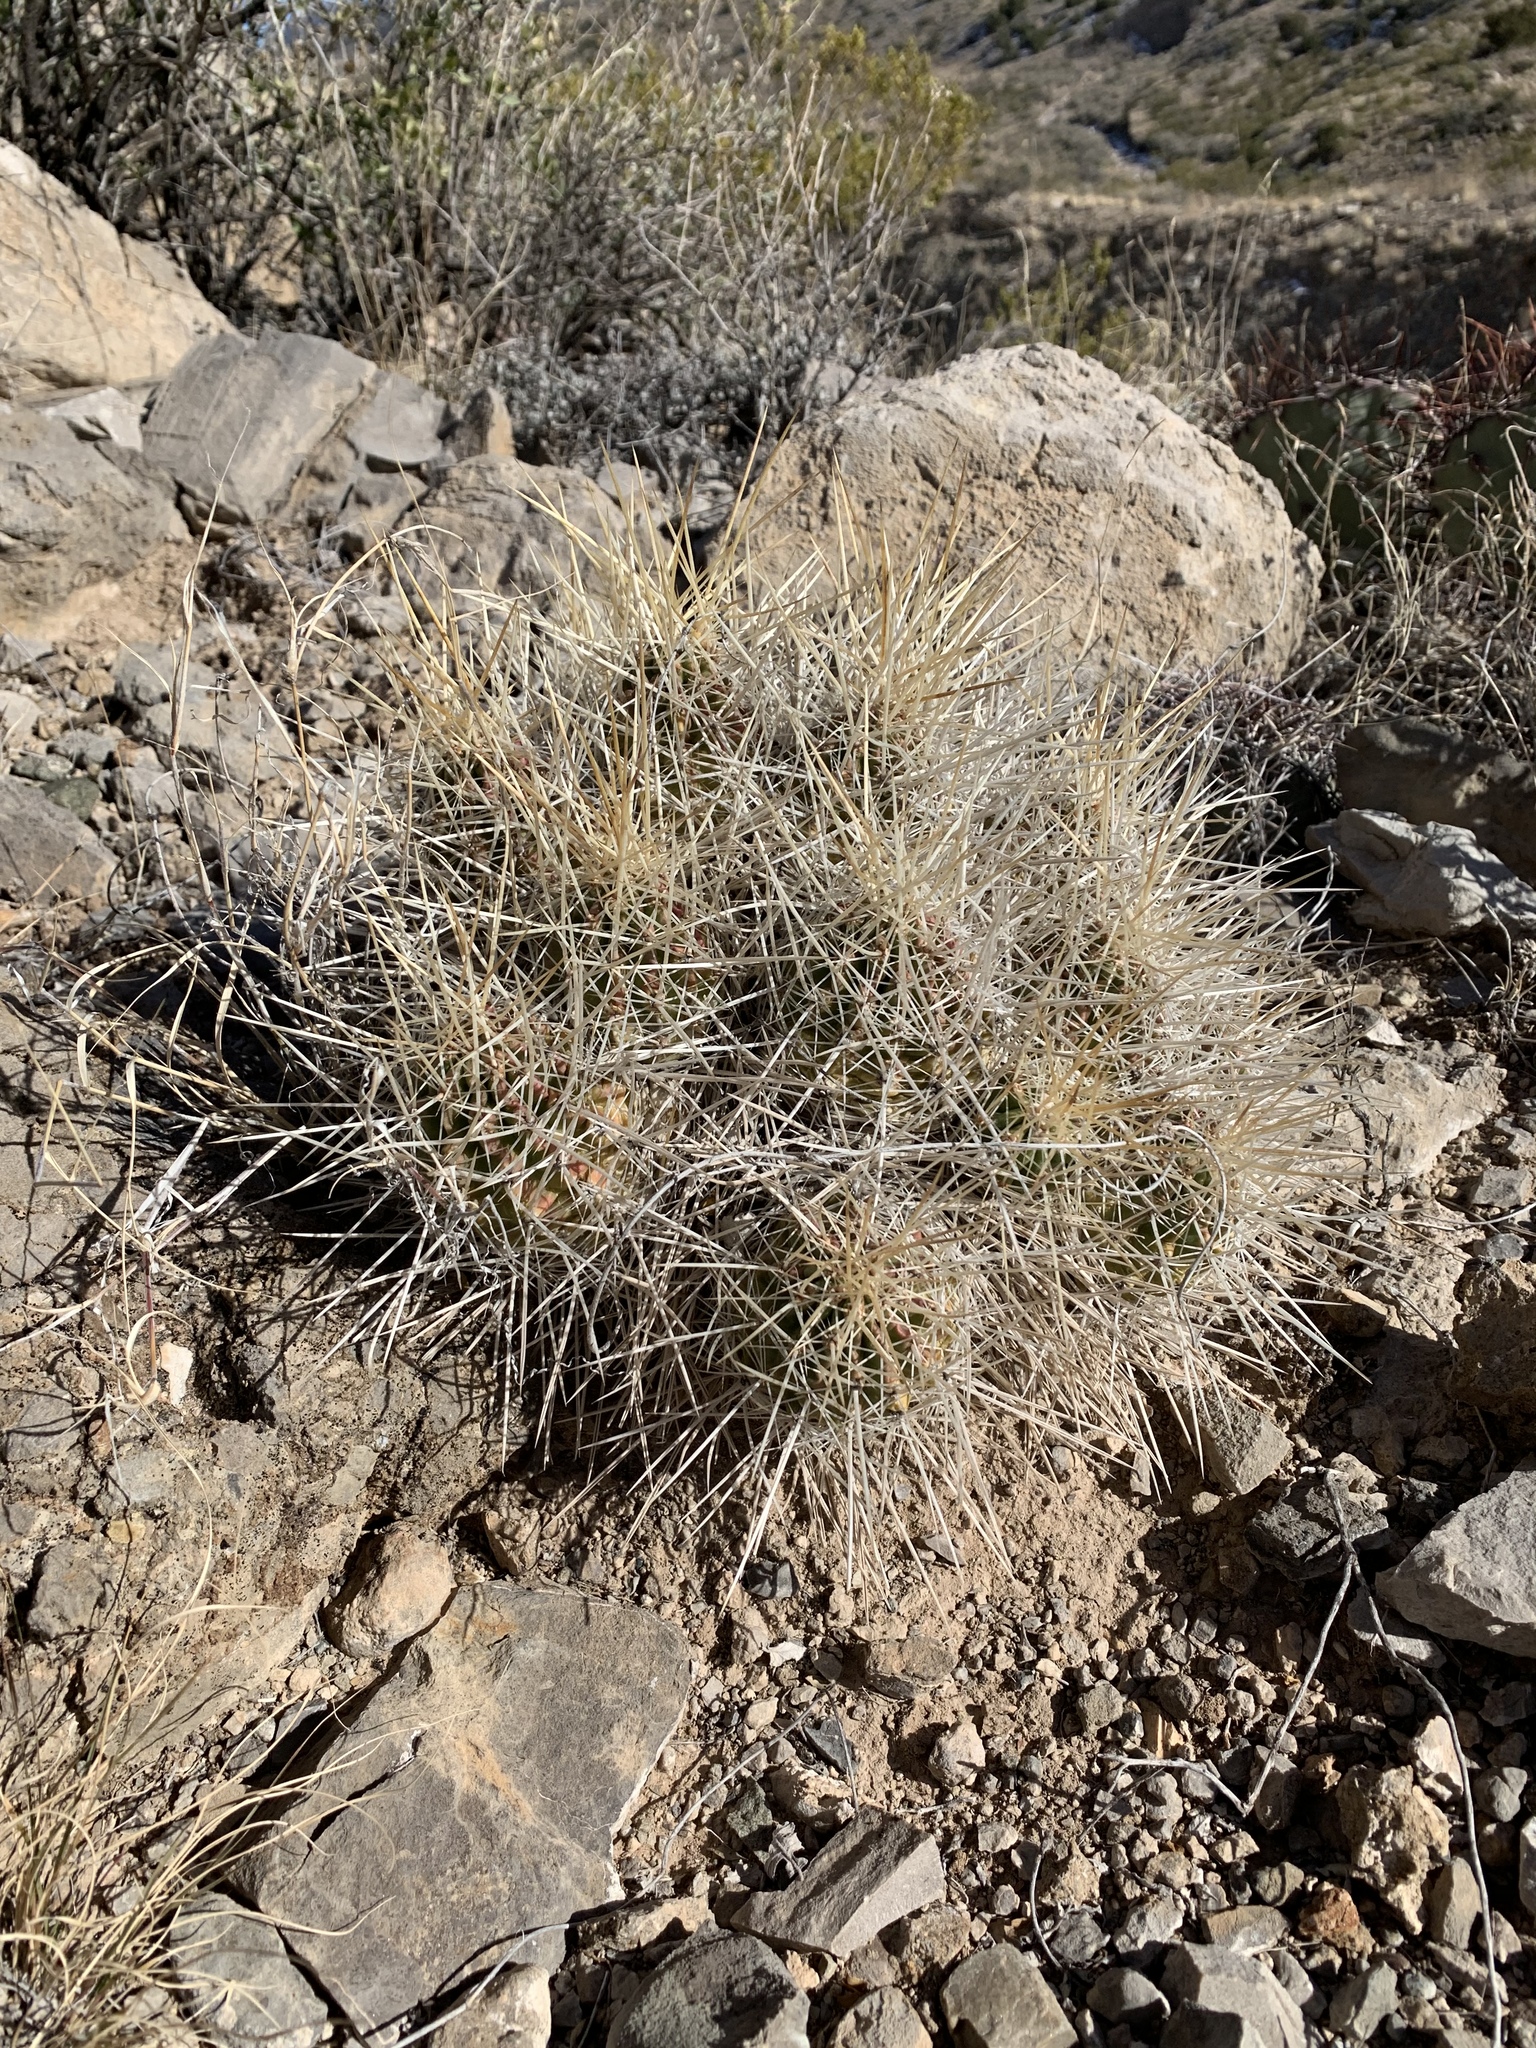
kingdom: Plantae
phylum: Tracheophyta
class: Magnoliopsida
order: Caryophyllales
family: Cactaceae
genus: Echinocereus
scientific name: Echinocereus stramineus
